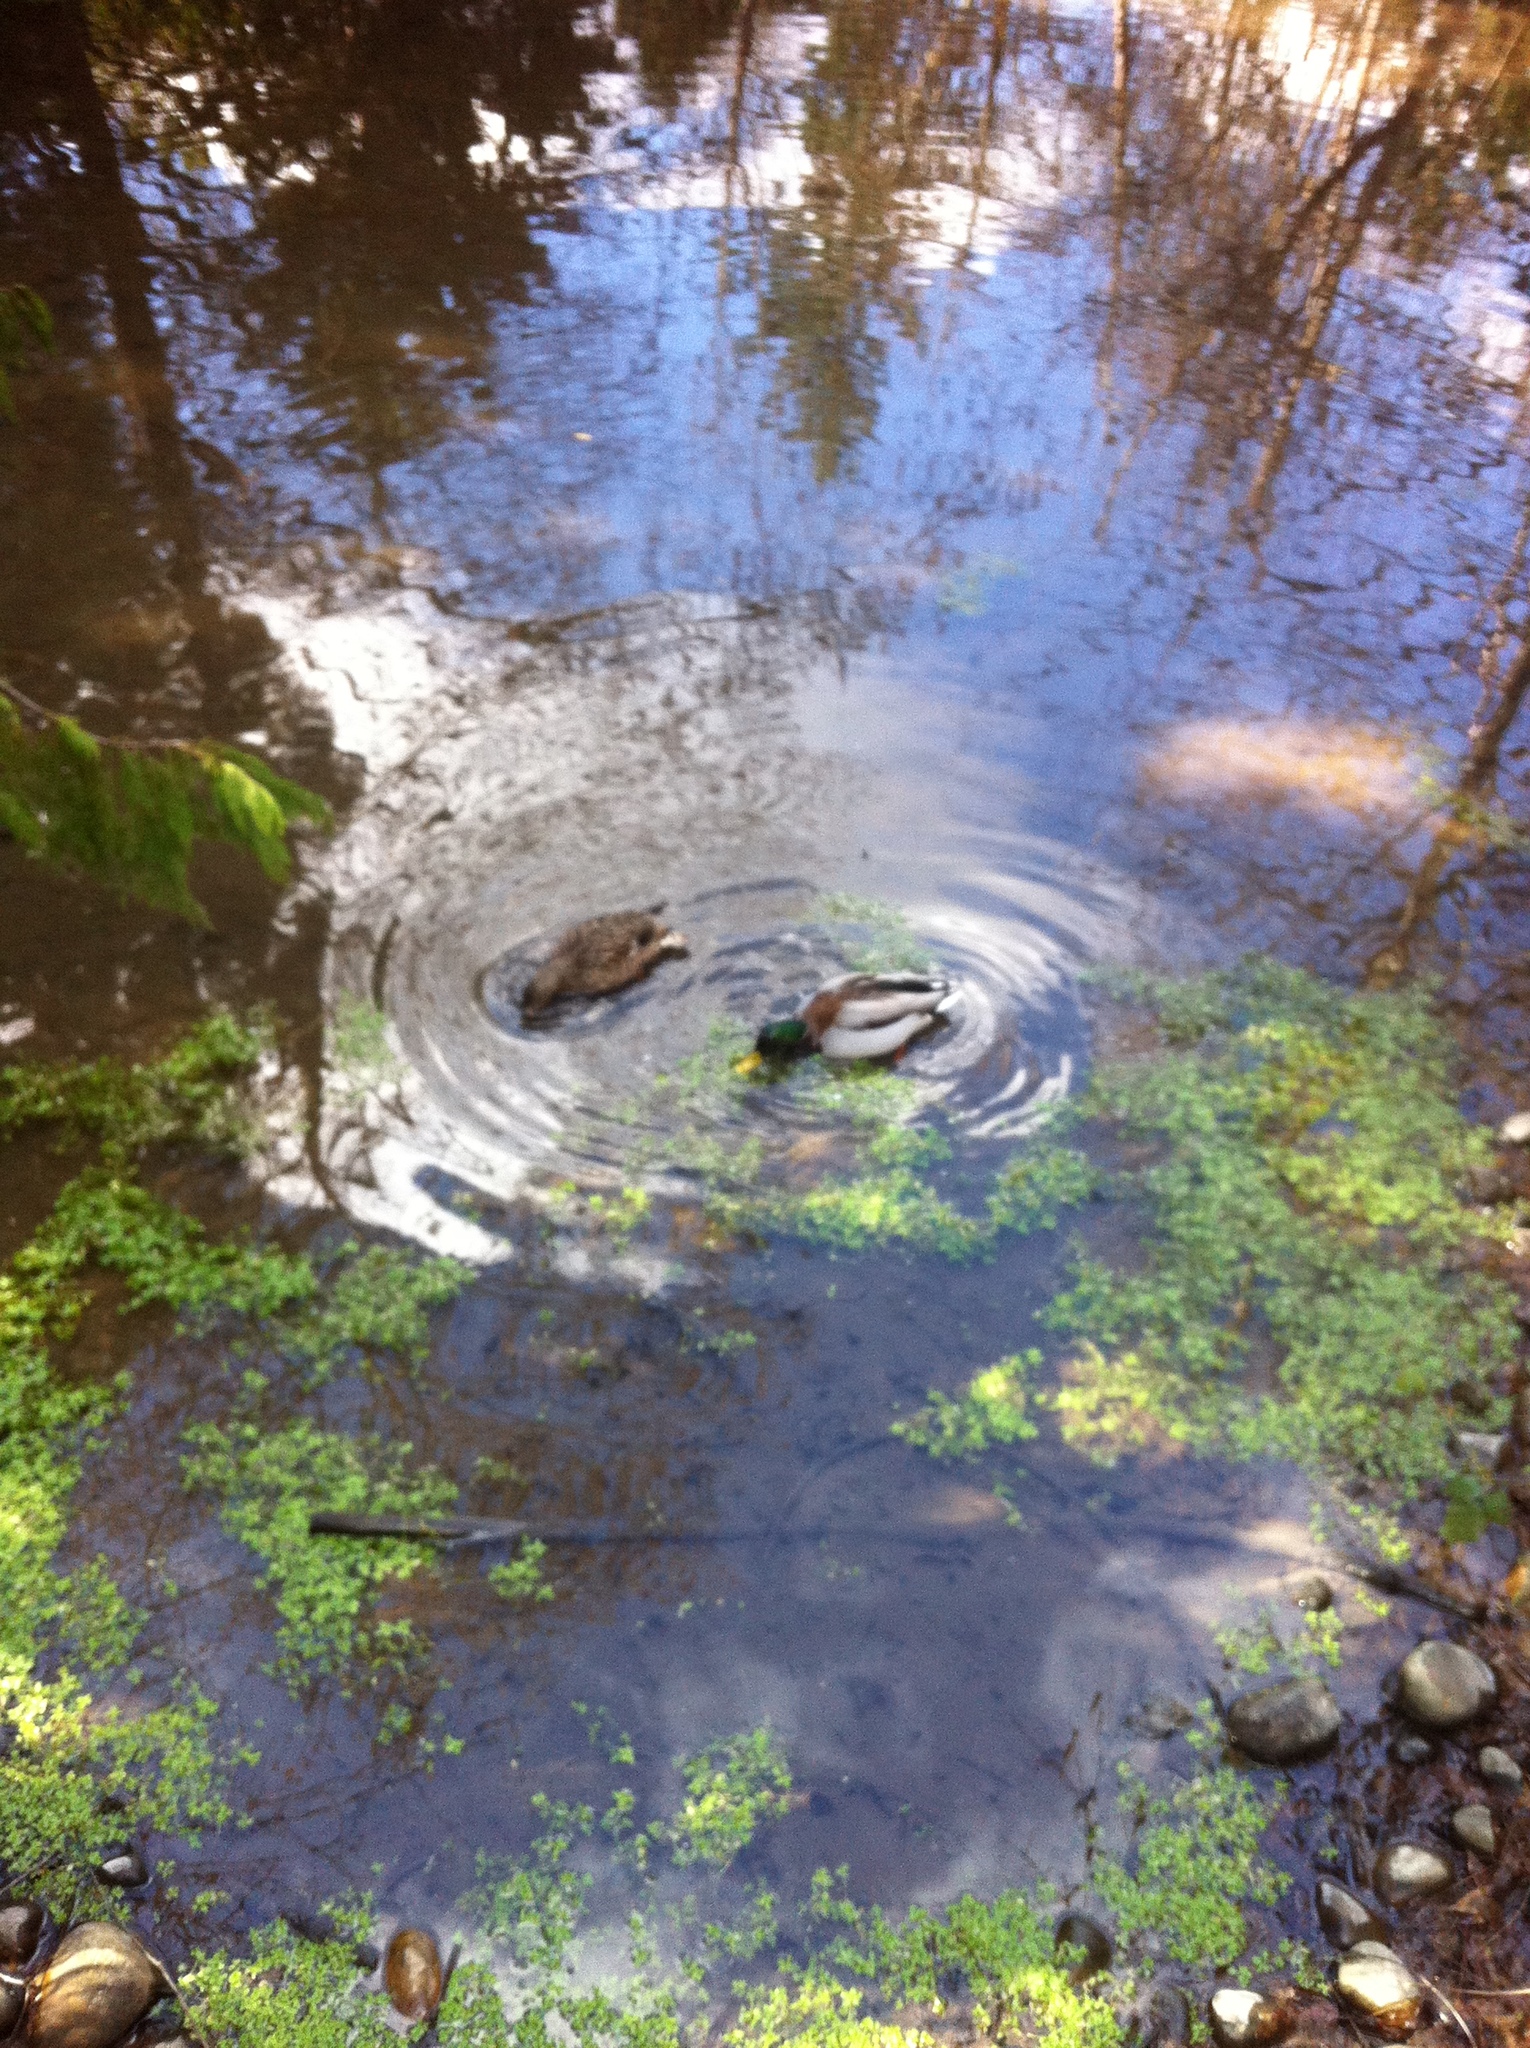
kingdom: Animalia
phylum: Chordata
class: Aves
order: Anseriformes
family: Anatidae
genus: Anas
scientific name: Anas platyrhynchos
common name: Mallard
